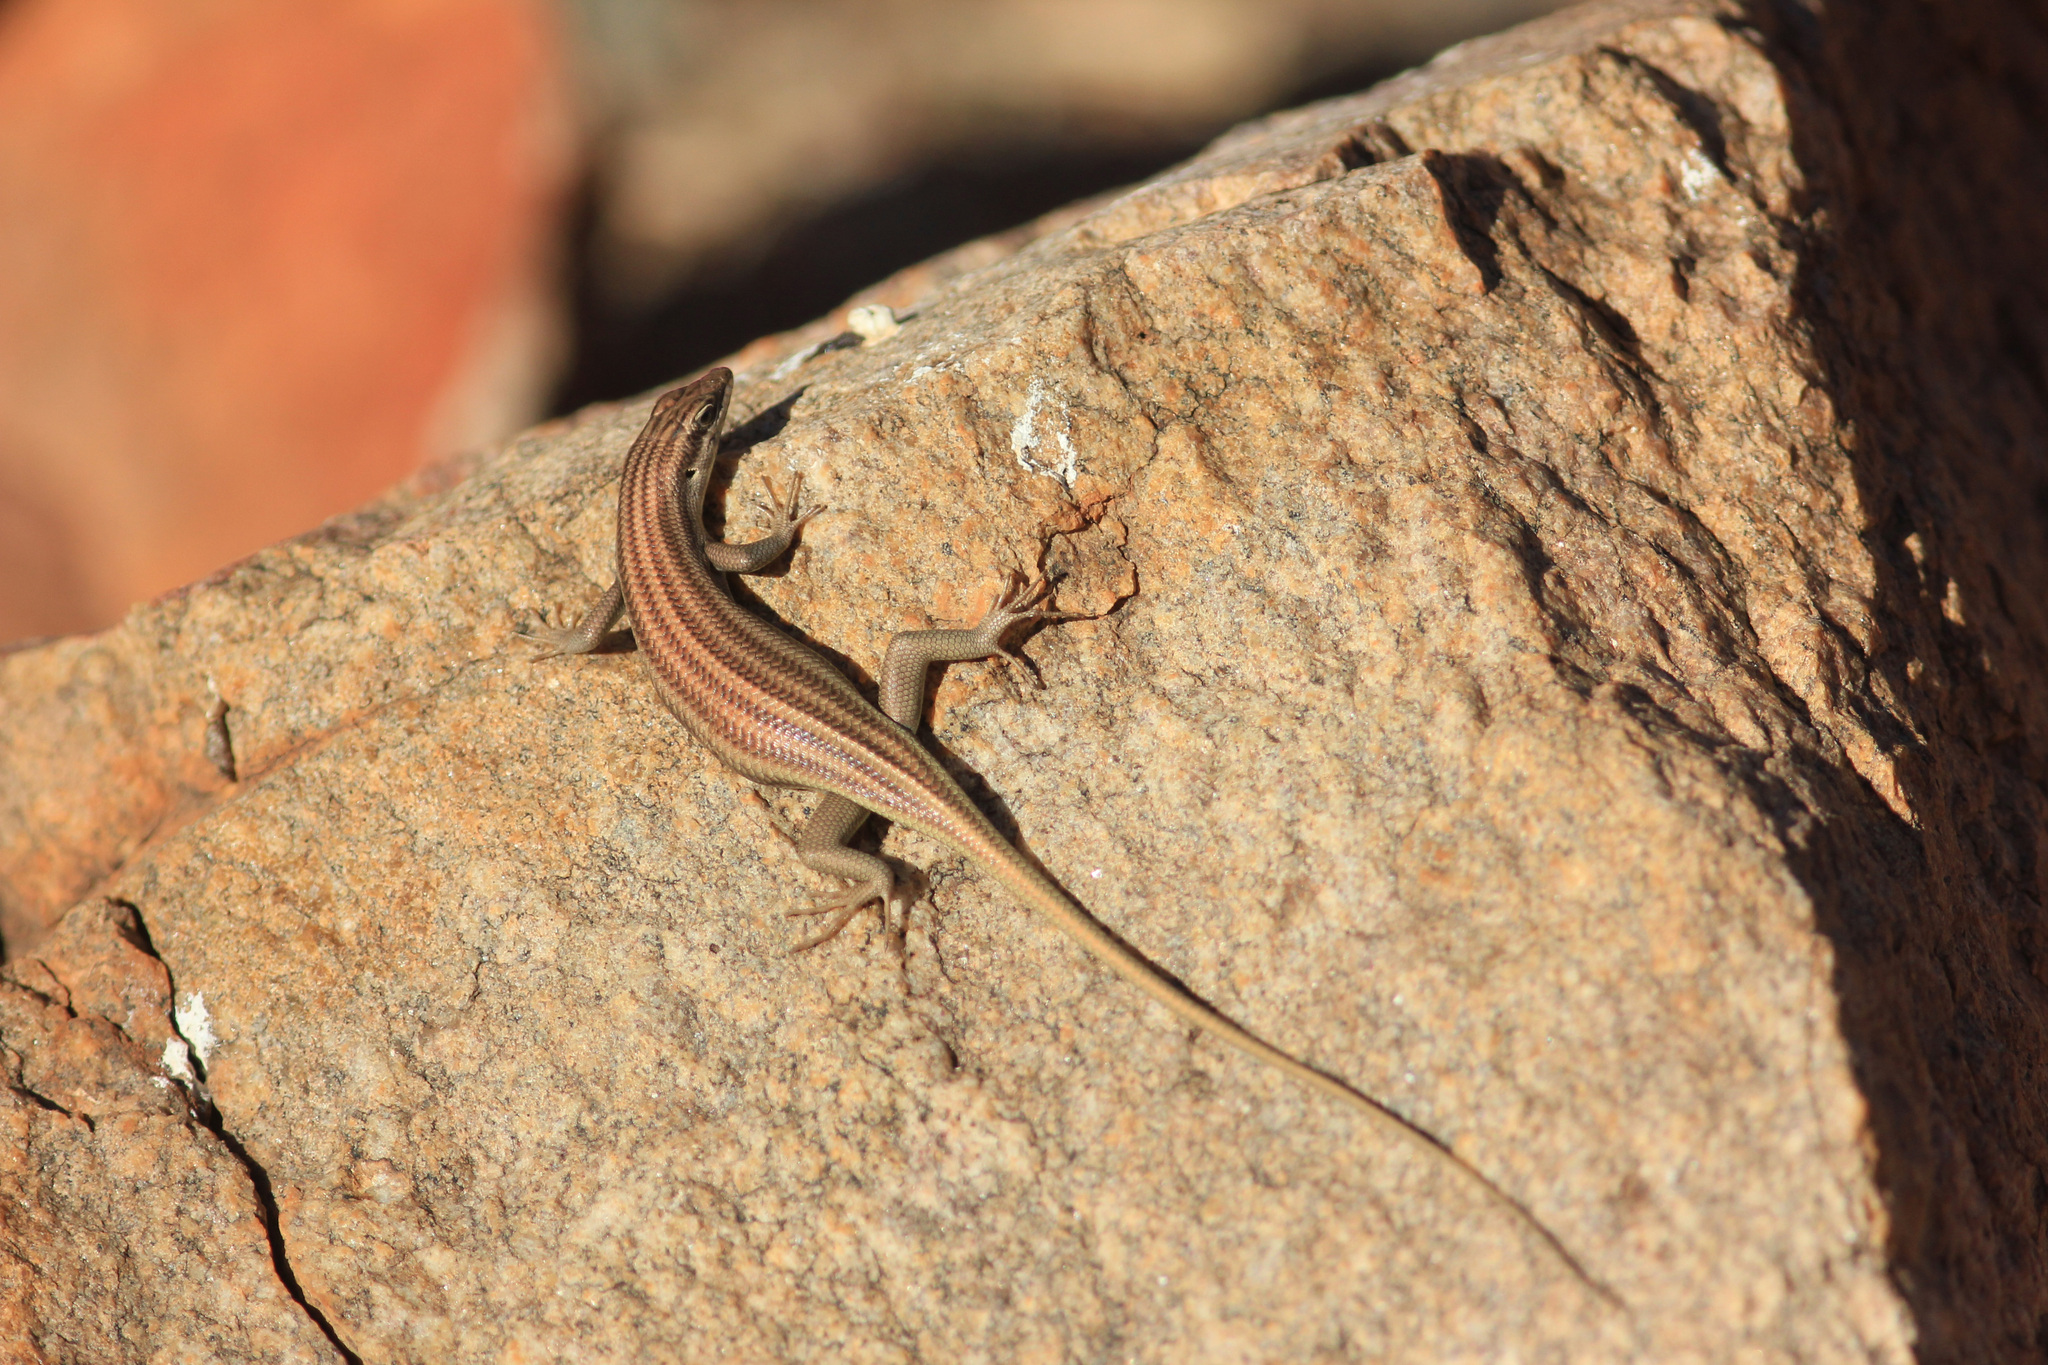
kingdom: Animalia
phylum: Chordata
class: Squamata
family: Scincidae
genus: Trachylepis
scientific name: Trachylepis sulcata
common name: Western rock skink
